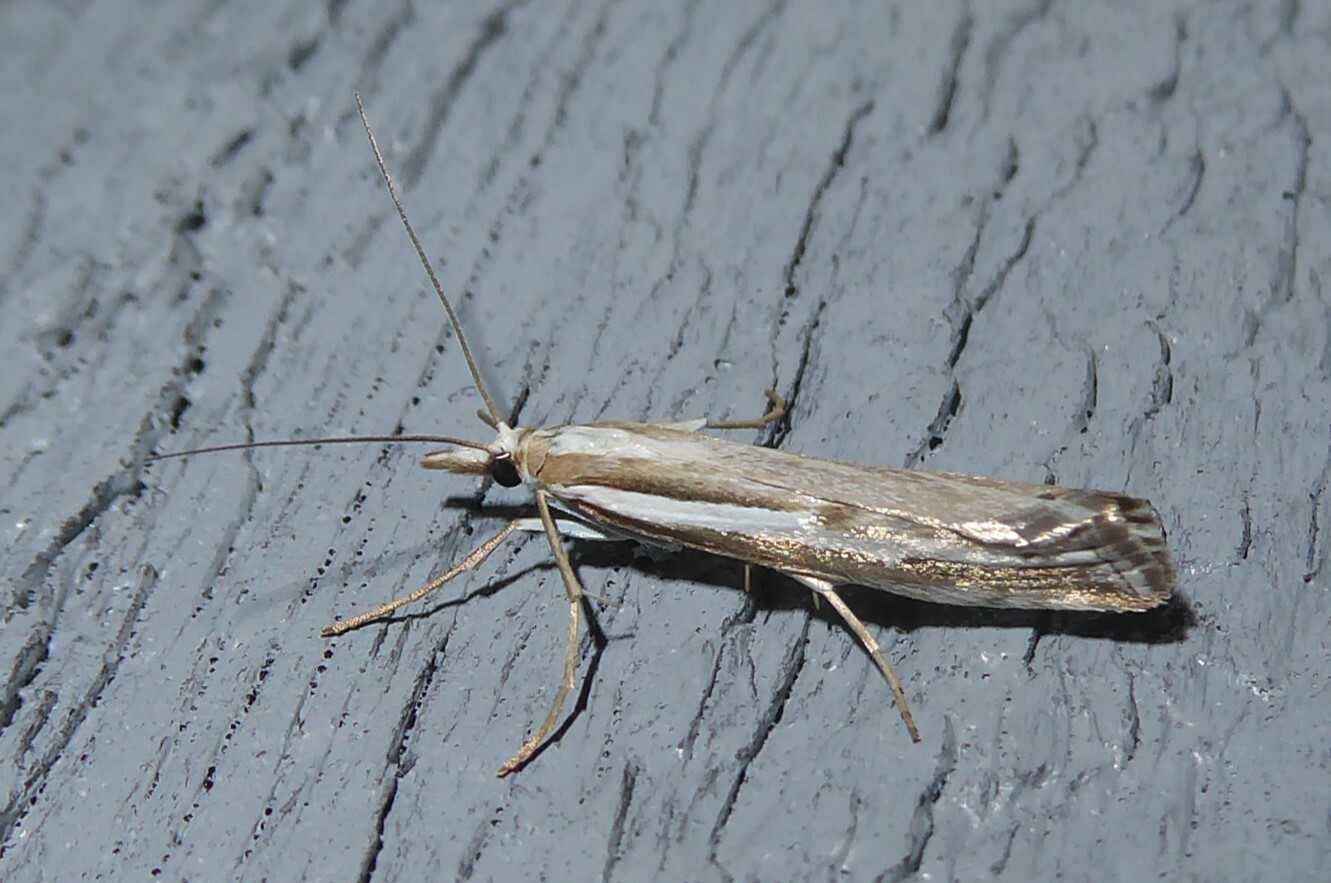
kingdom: Animalia
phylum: Arthropoda
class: Insecta
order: Lepidoptera
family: Crambidae
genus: Orocrambus
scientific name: Orocrambus vittellus
